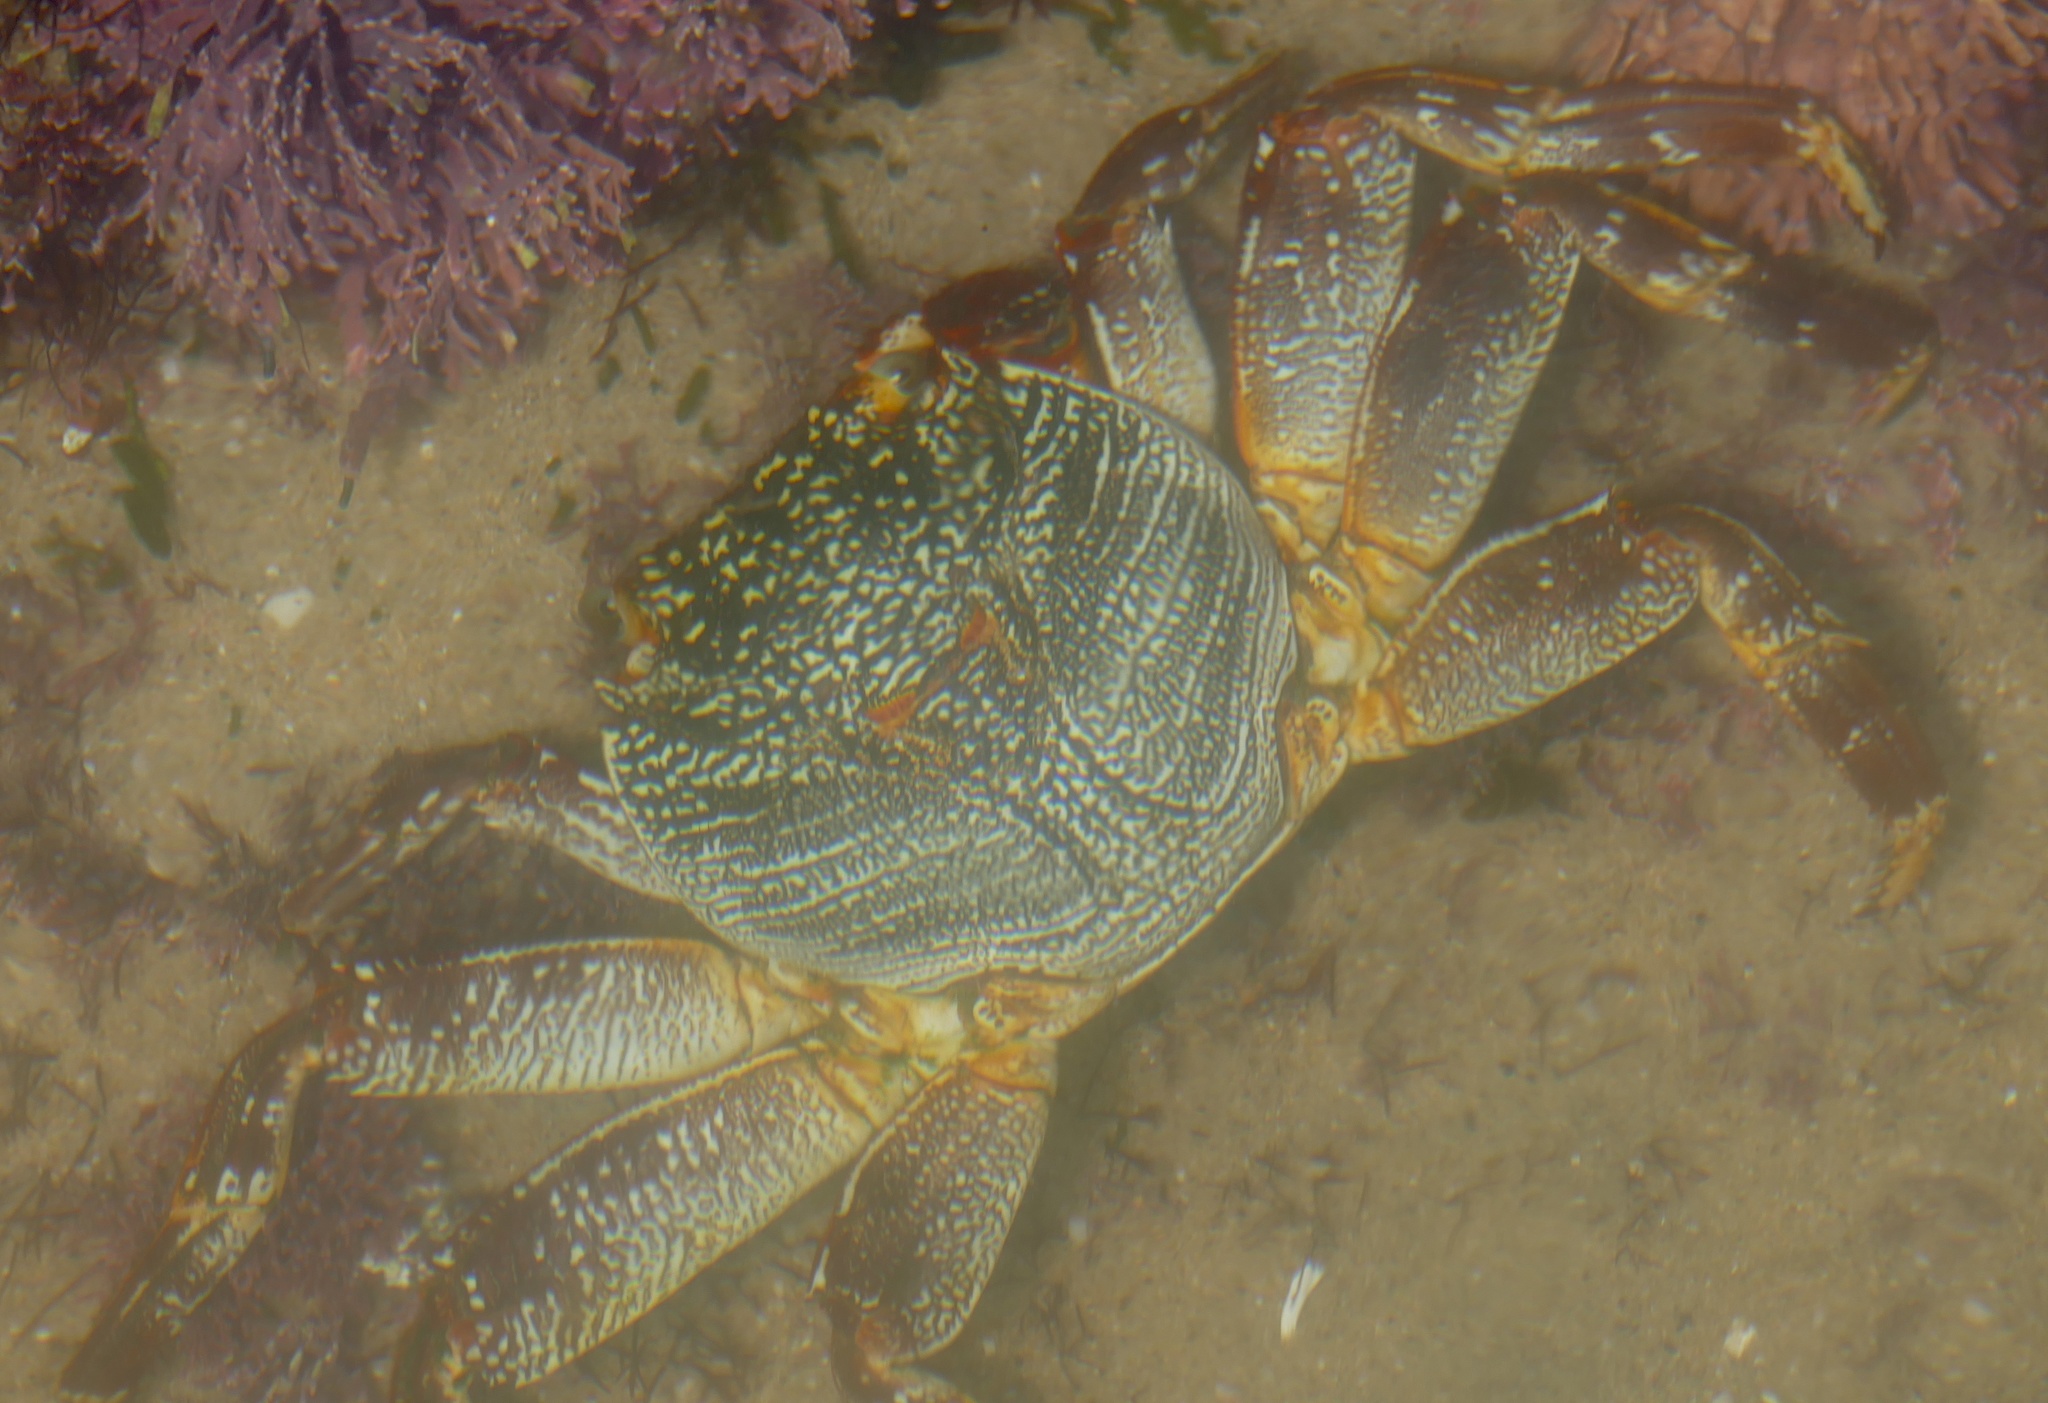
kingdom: Animalia
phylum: Arthropoda
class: Malacostraca
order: Decapoda
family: Grapsidae
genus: Grapsus
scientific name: Grapsus tenuicrustatus
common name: Natal lightfoot crab
